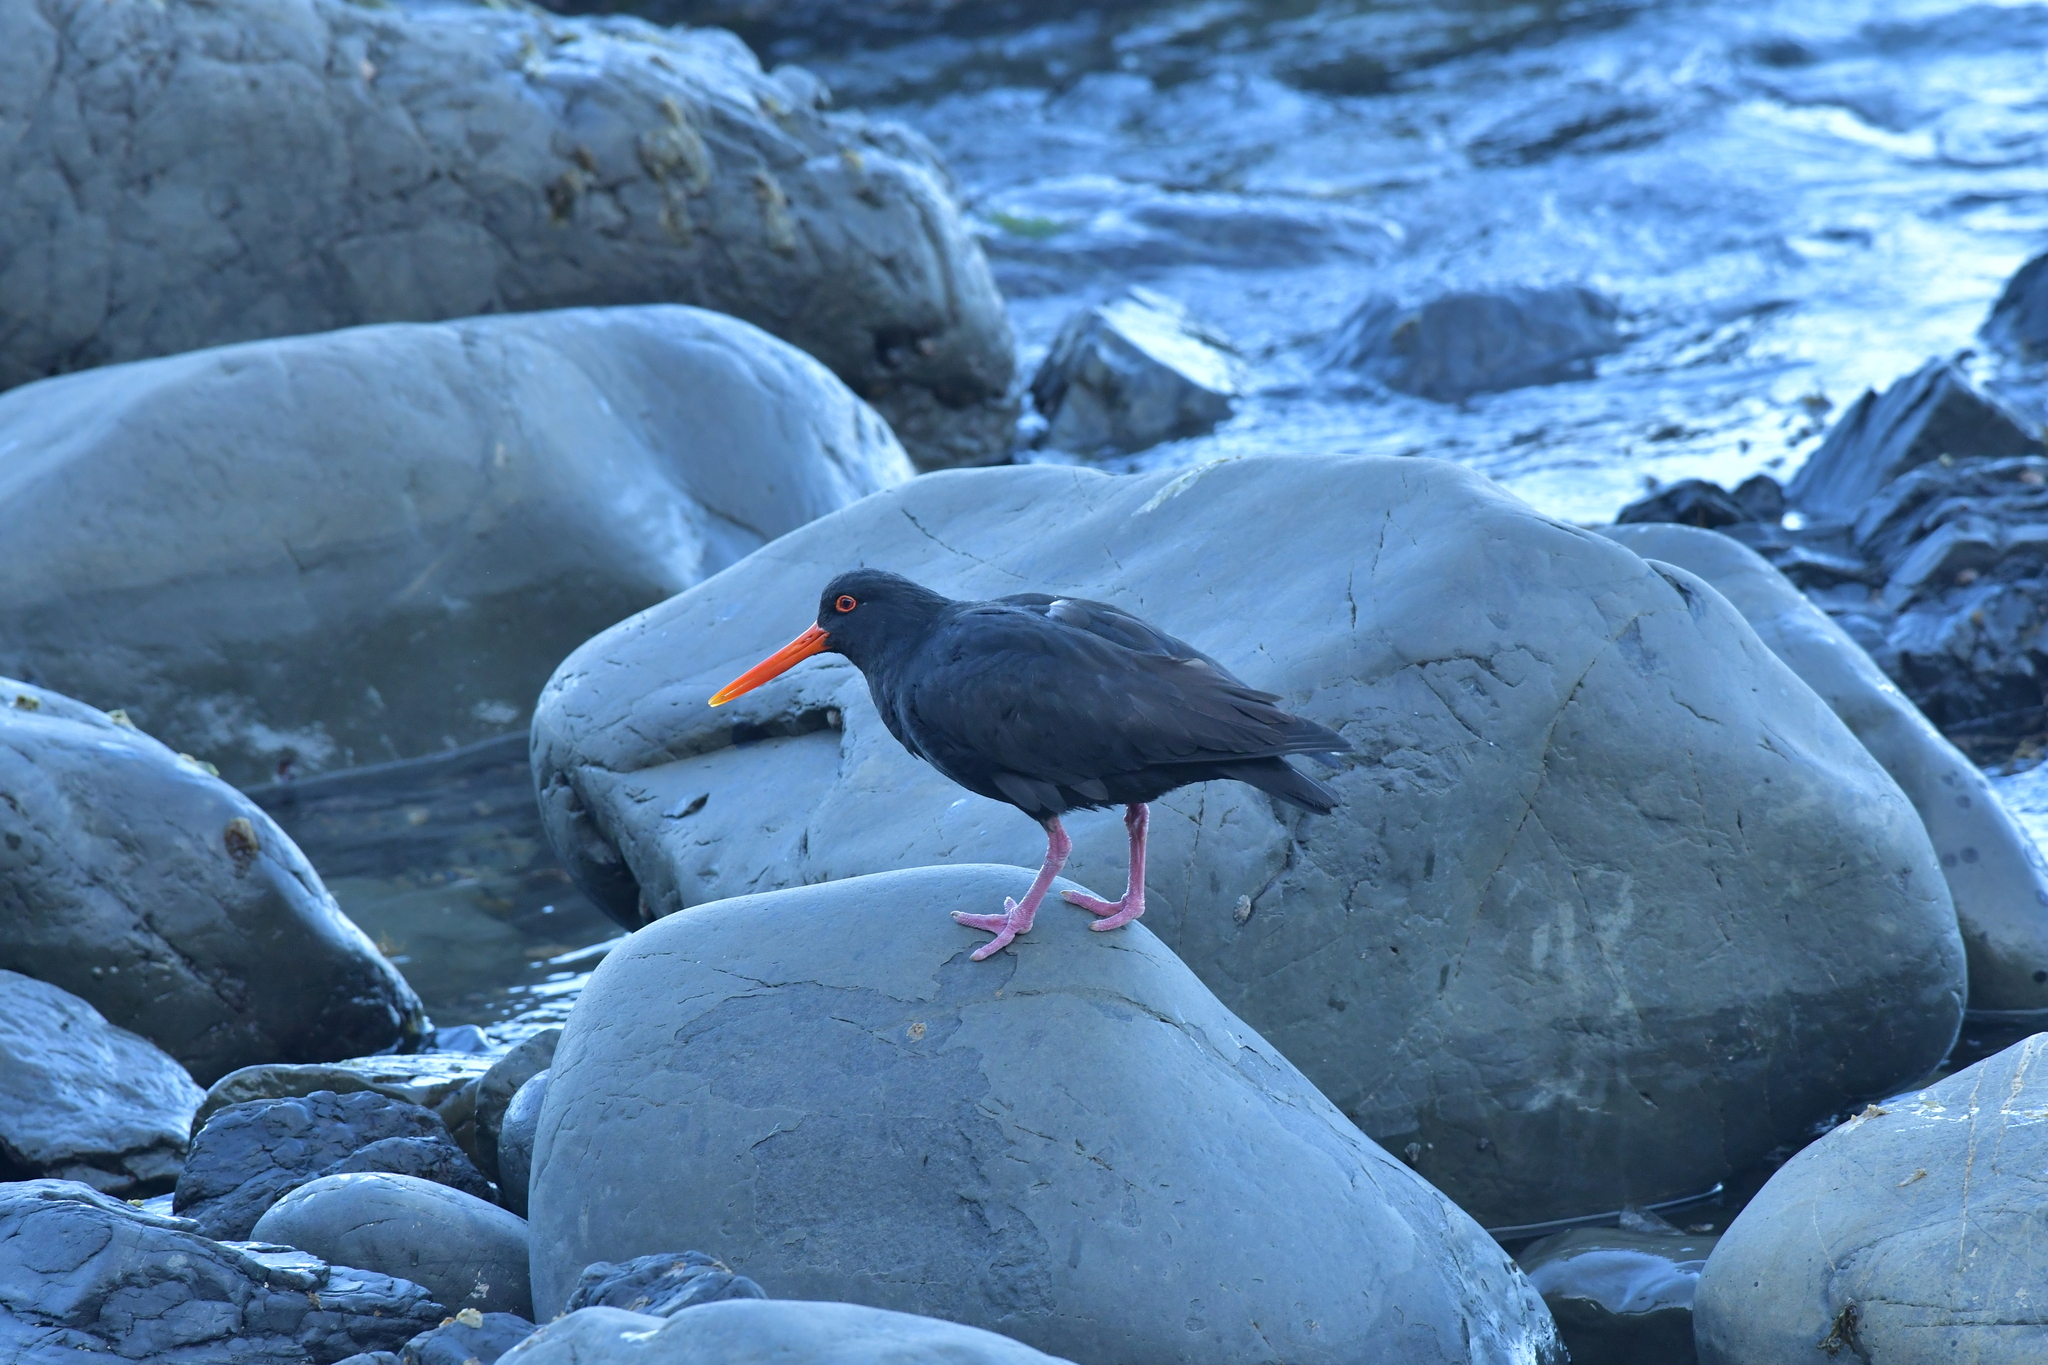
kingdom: Animalia
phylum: Chordata
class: Aves
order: Charadriiformes
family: Haematopodidae
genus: Haematopus
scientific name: Haematopus unicolor
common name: Variable oystercatcher
